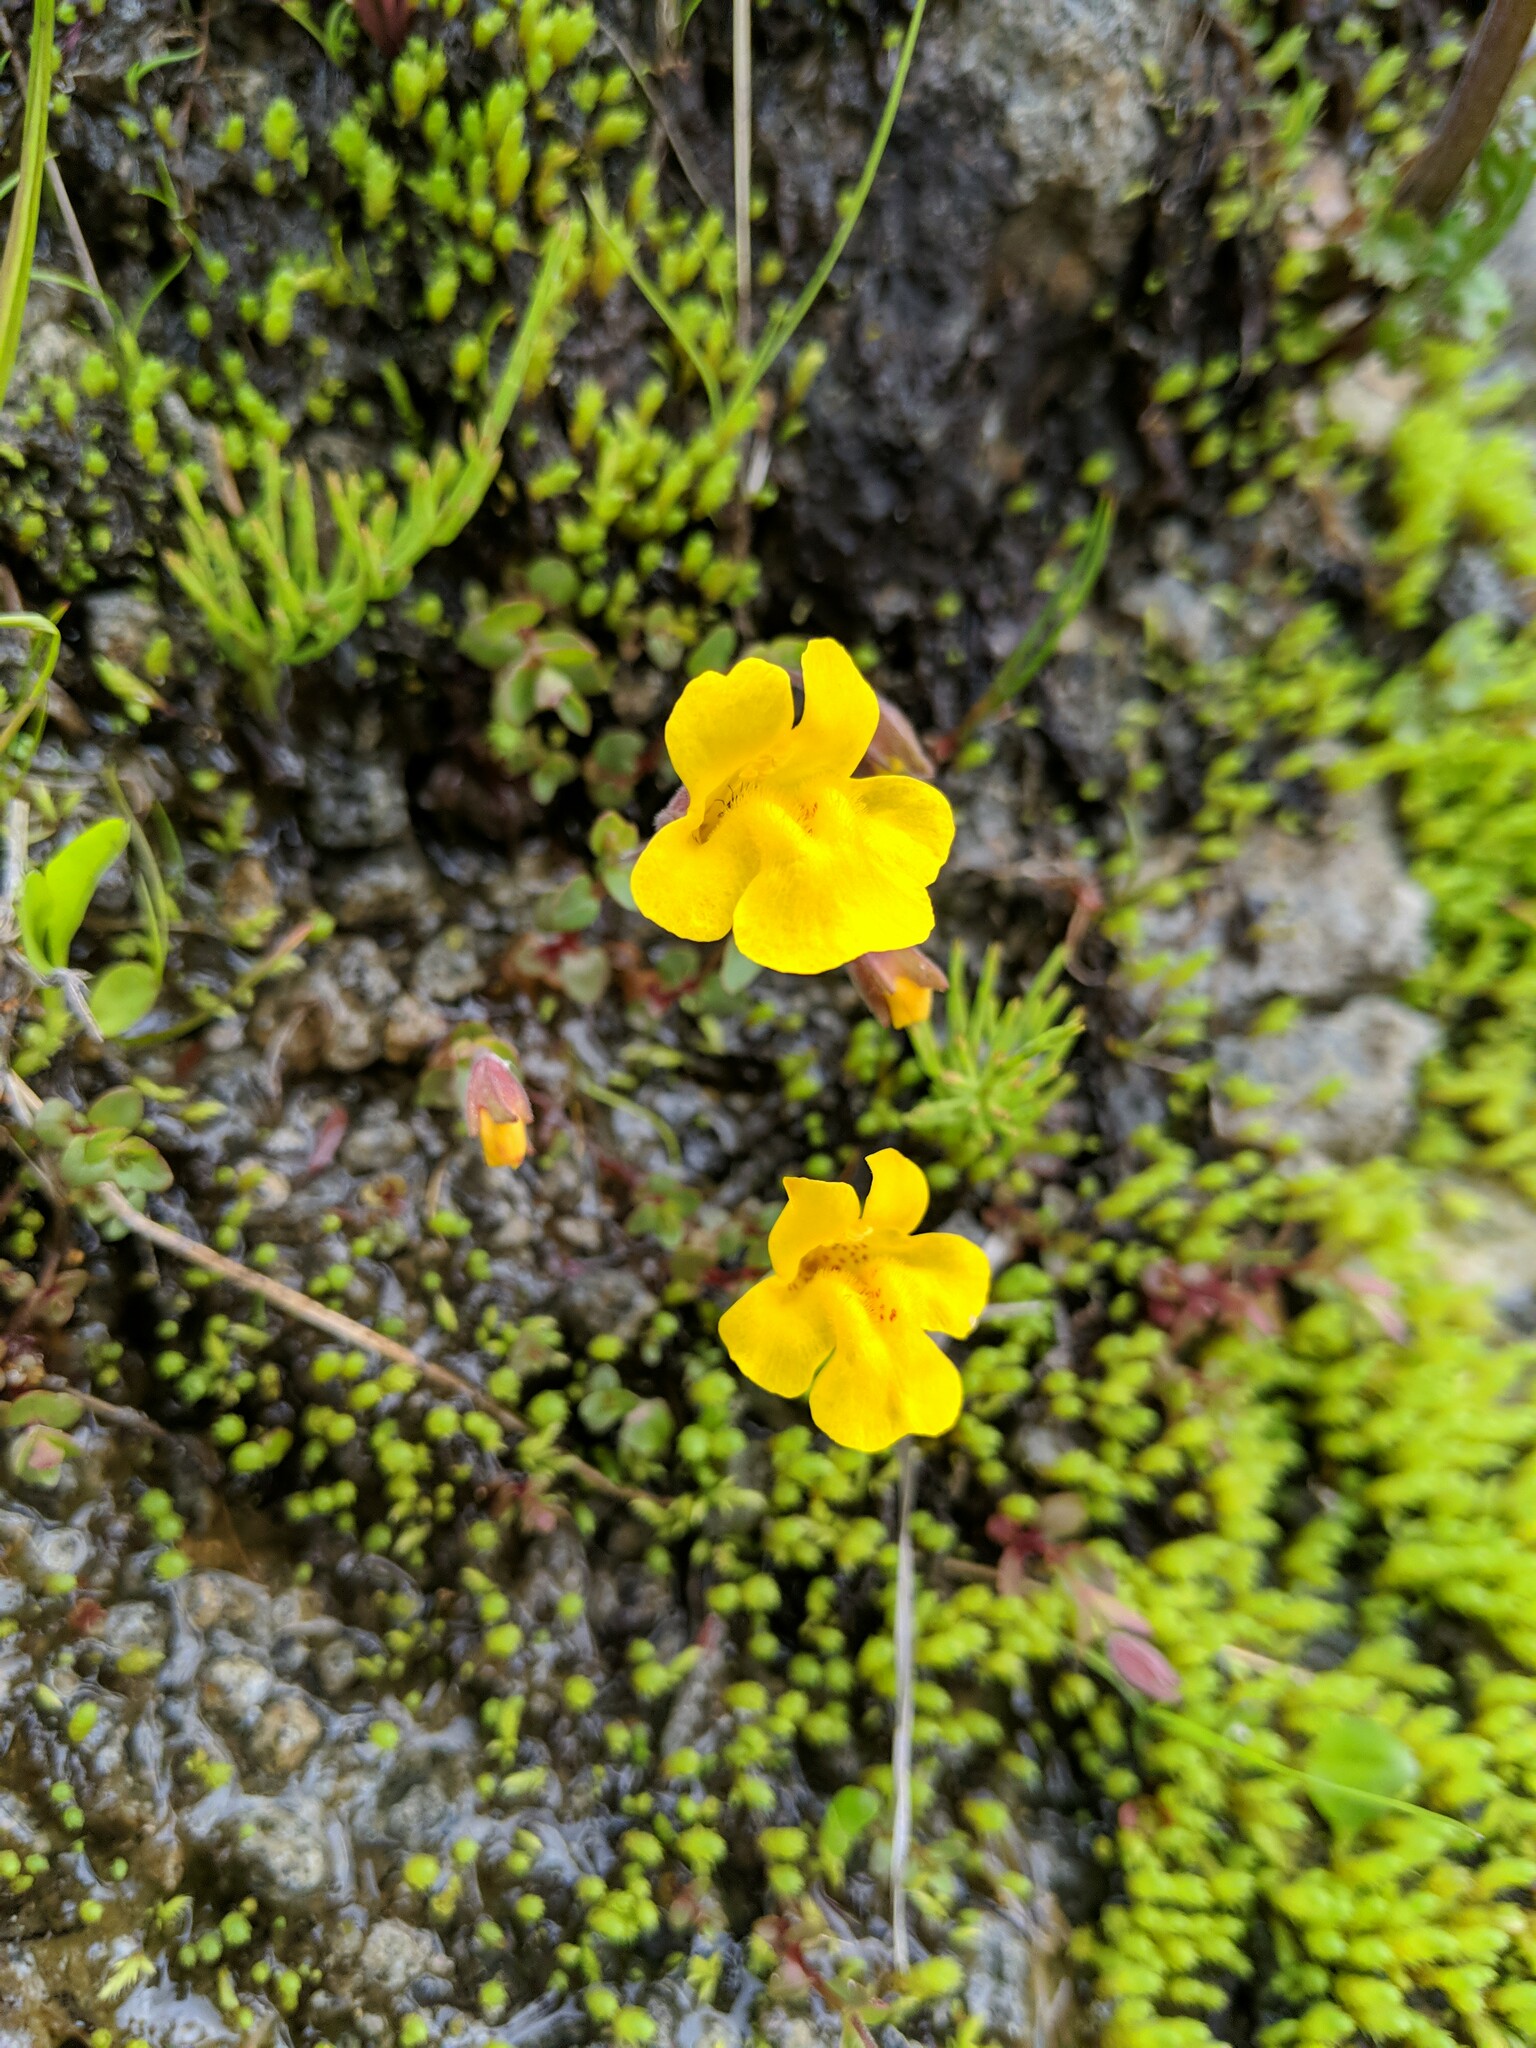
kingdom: Plantae
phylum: Tracheophyta
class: Magnoliopsida
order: Lamiales
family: Phrymaceae
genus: Erythranthe
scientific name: Erythranthe caespitosa
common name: Subalpine monkeyflower
